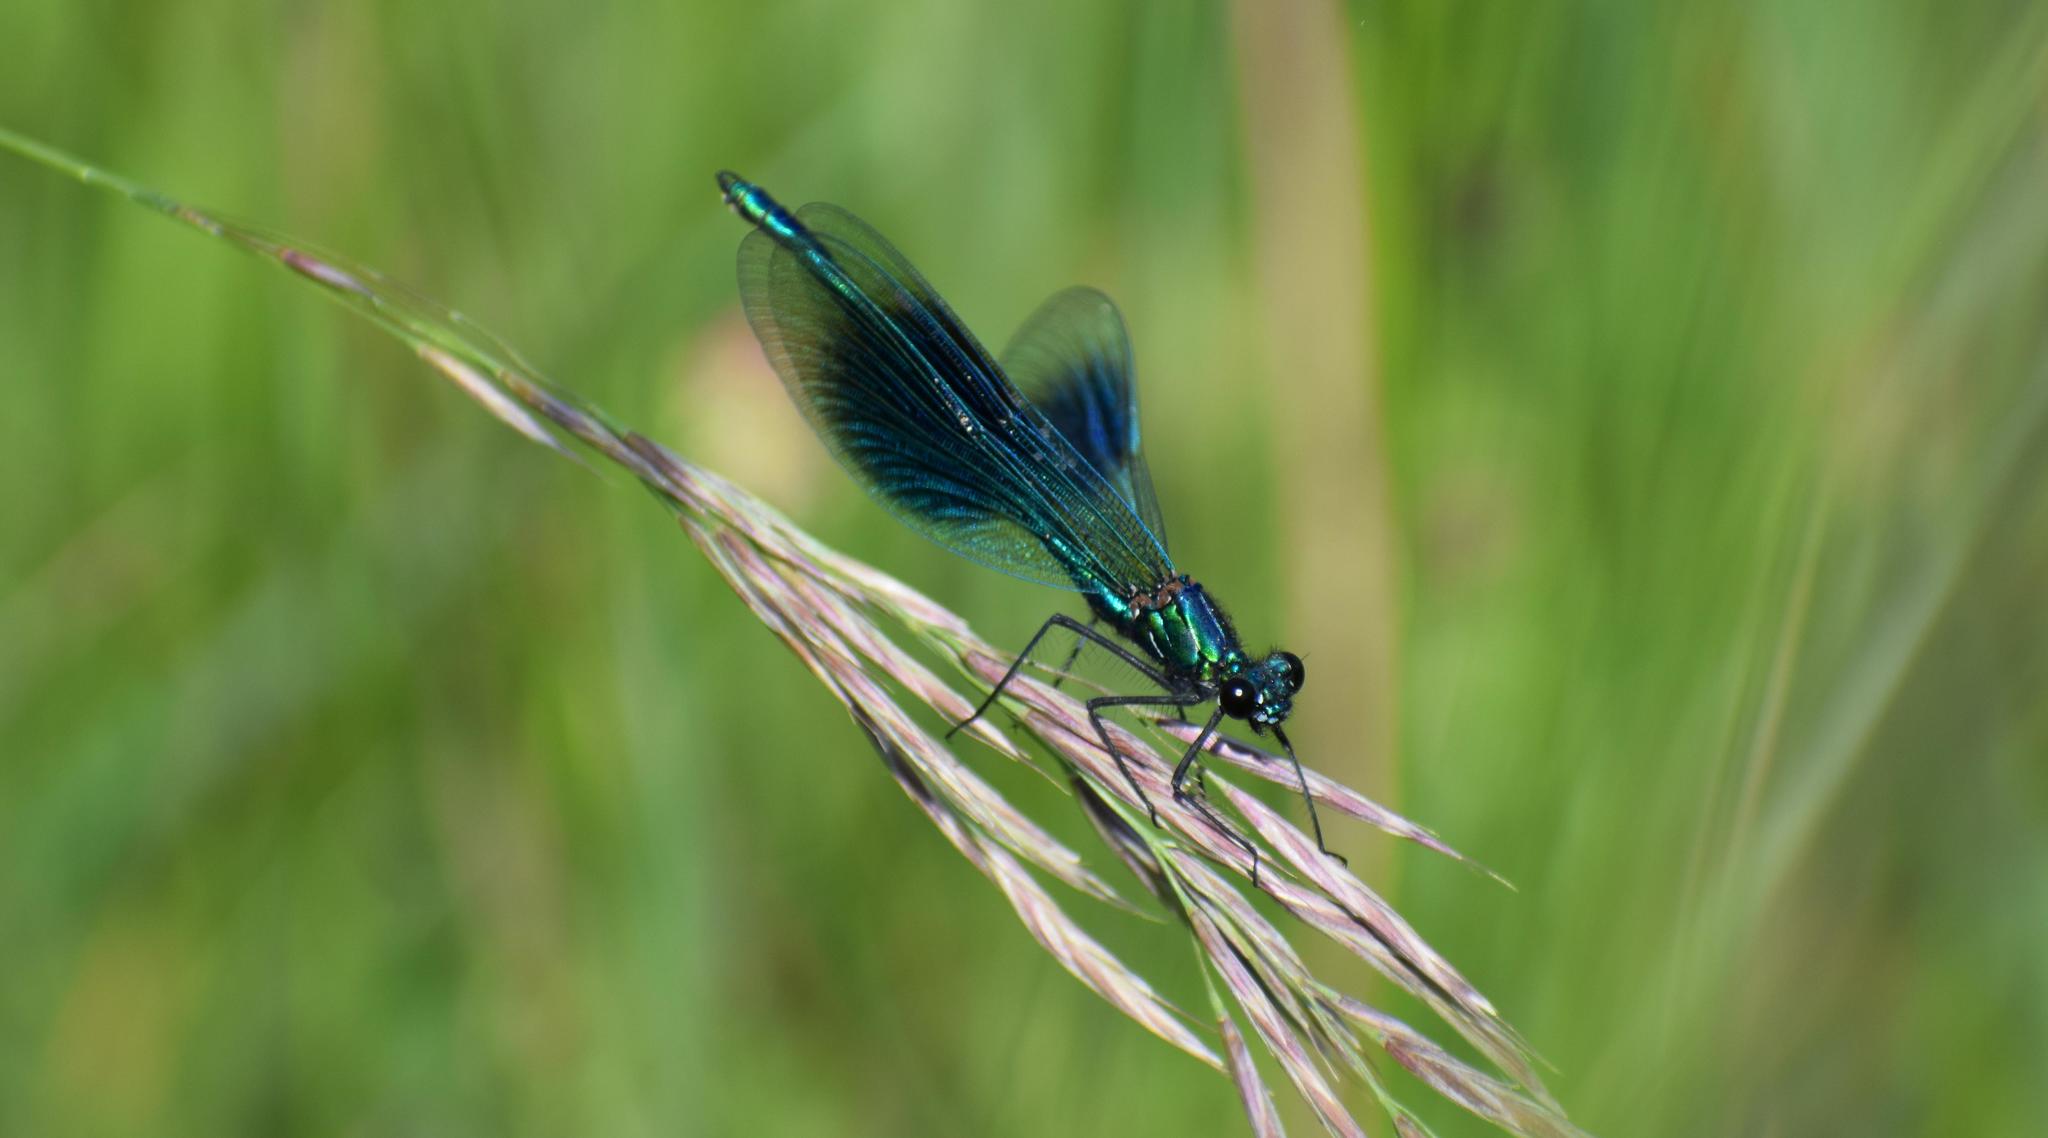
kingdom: Animalia
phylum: Arthropoda
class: Insecta
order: Odonata
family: Calopterygidae
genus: Calopteryx
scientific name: Calopteryx splendens
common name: Banded demoiselle
